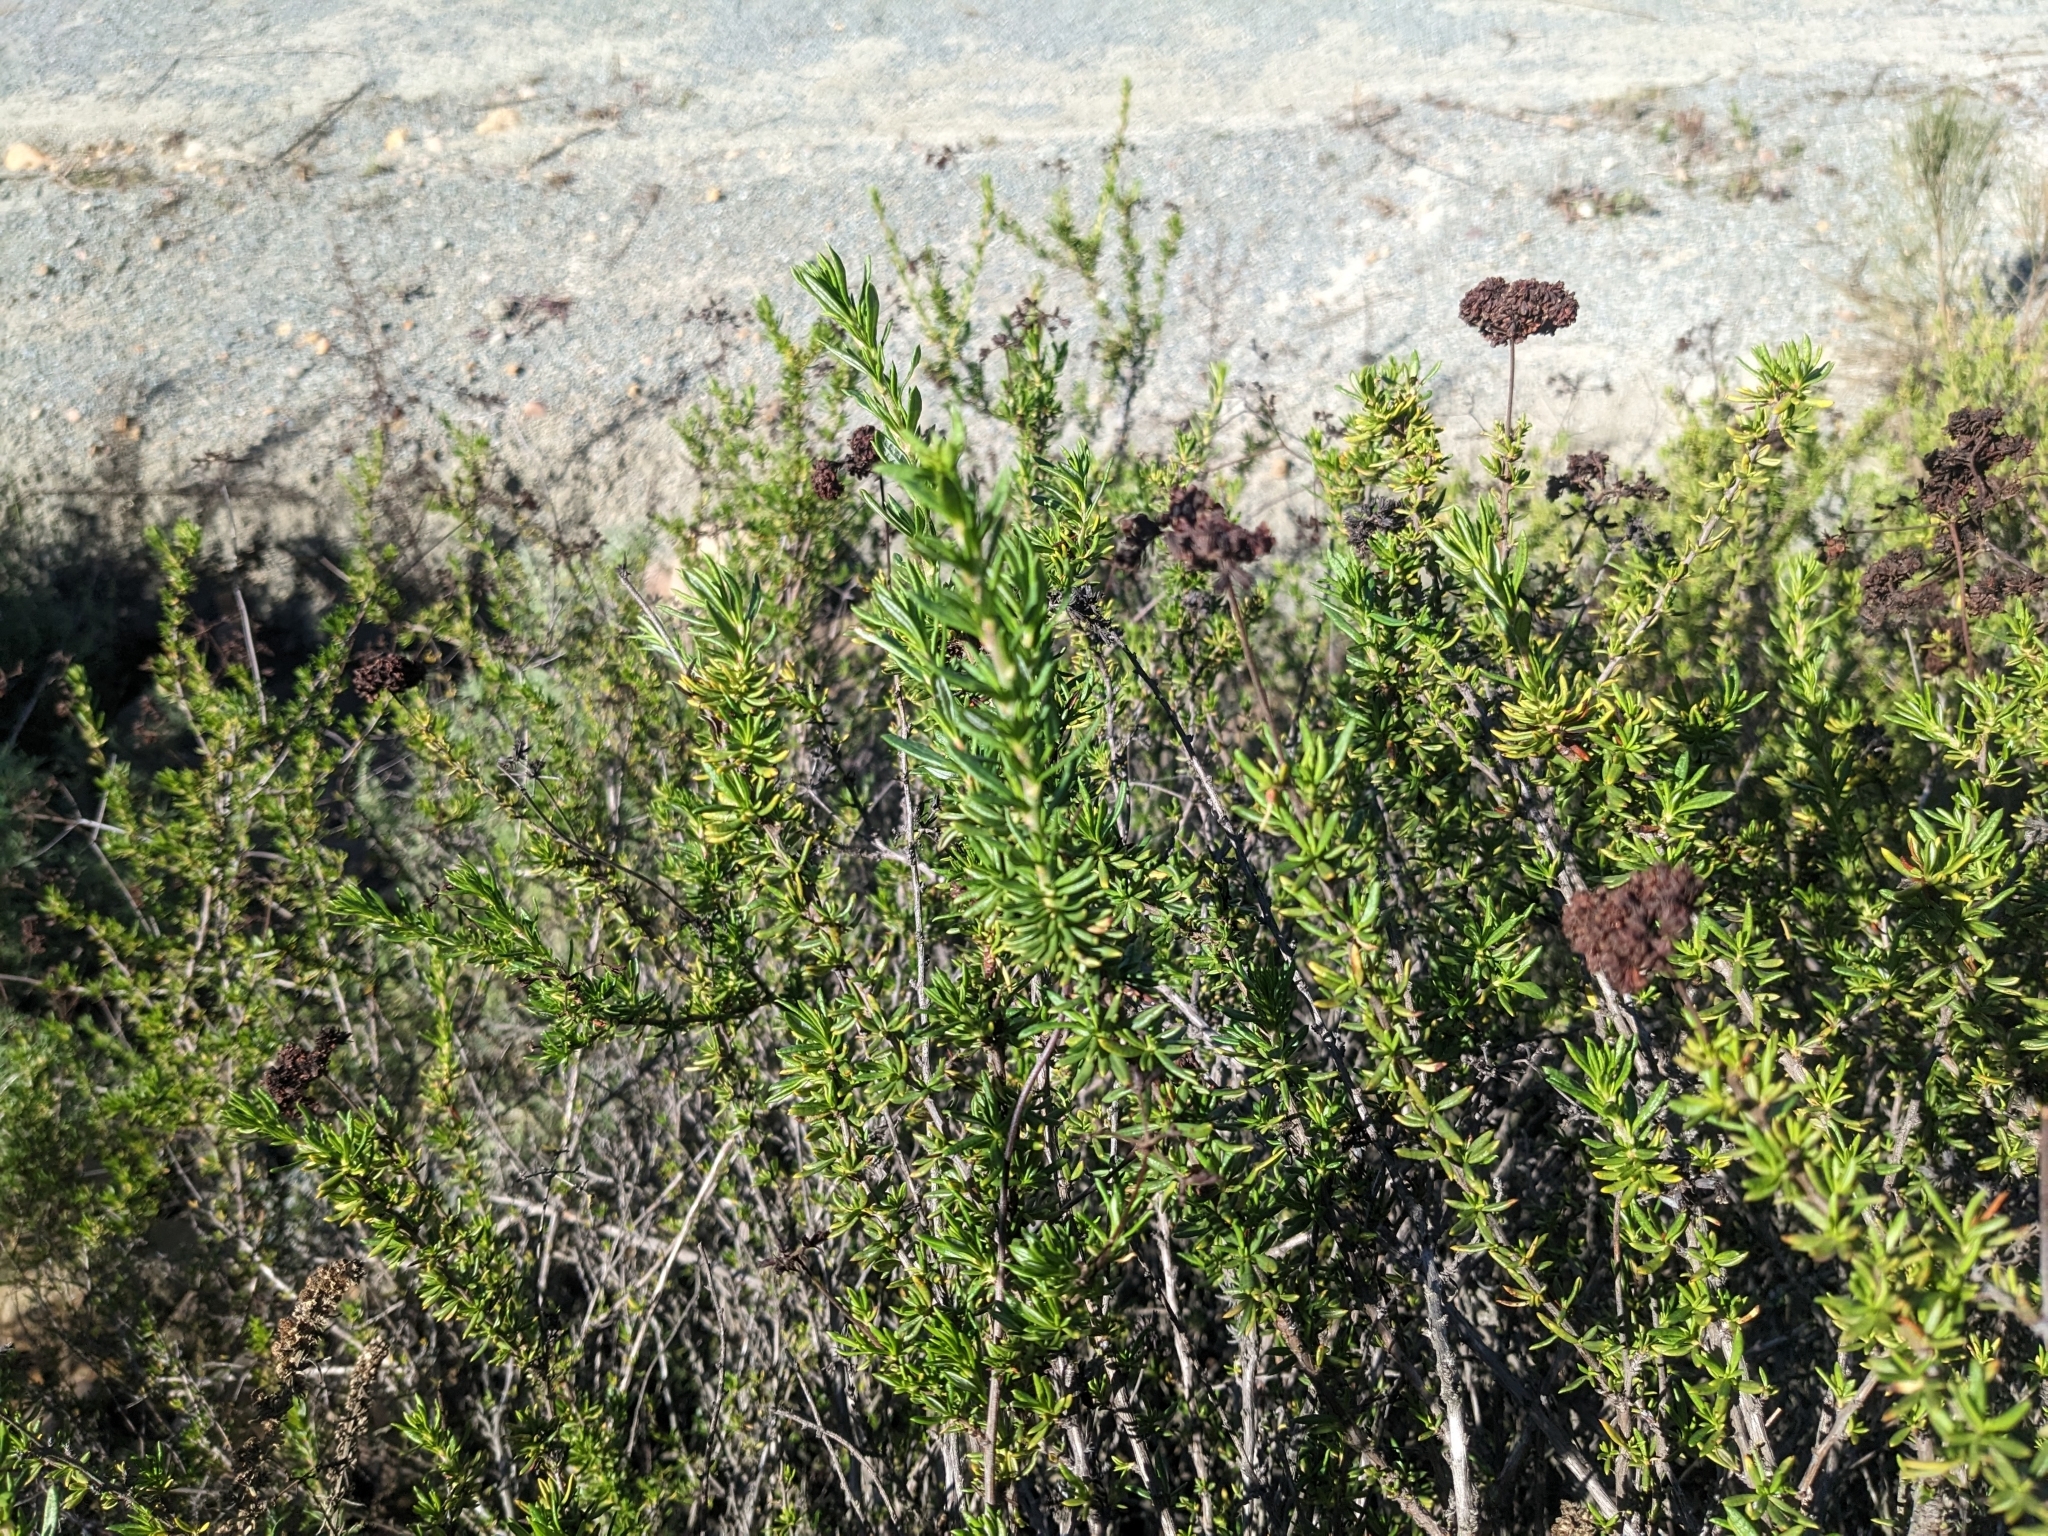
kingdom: Plantae
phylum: Tracheophyta
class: Magnoliopsida
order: Caryophyllales
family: Polygonaceae
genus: Eriogonum
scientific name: Eriogonum fasciculatum
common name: California wild buckwheat
